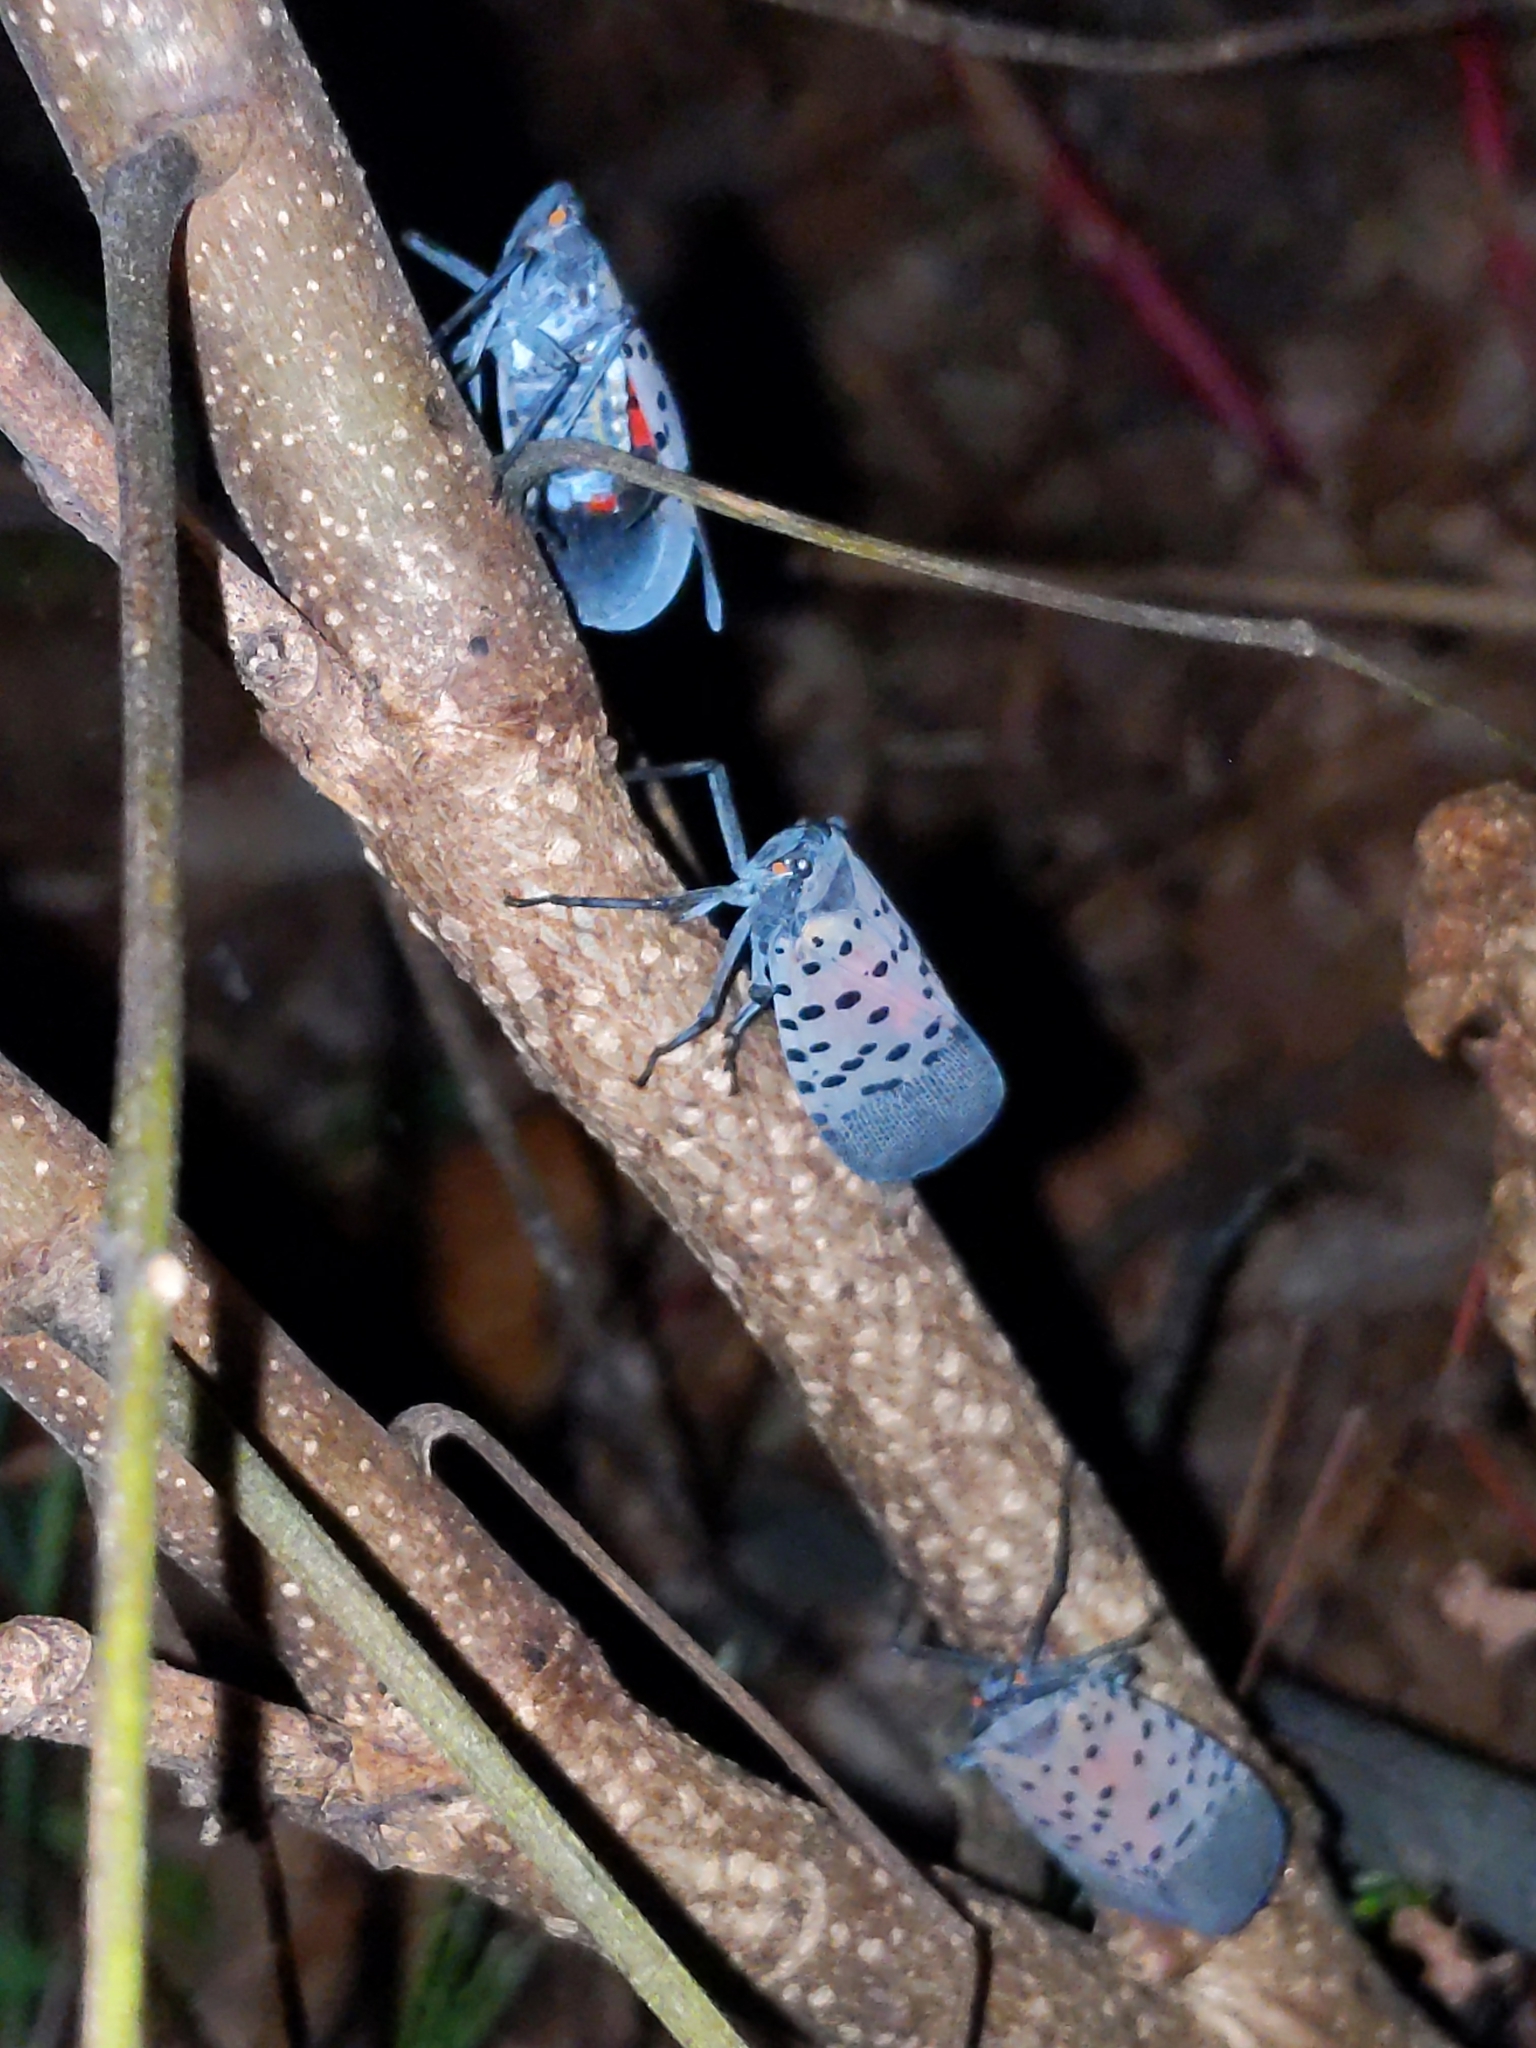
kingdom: Animalia
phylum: Arthropoda
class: Insecta
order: Hemiptera
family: Fulgoridae
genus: Lycorma
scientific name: Lycorma delicatula
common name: Spotted lanternfly
